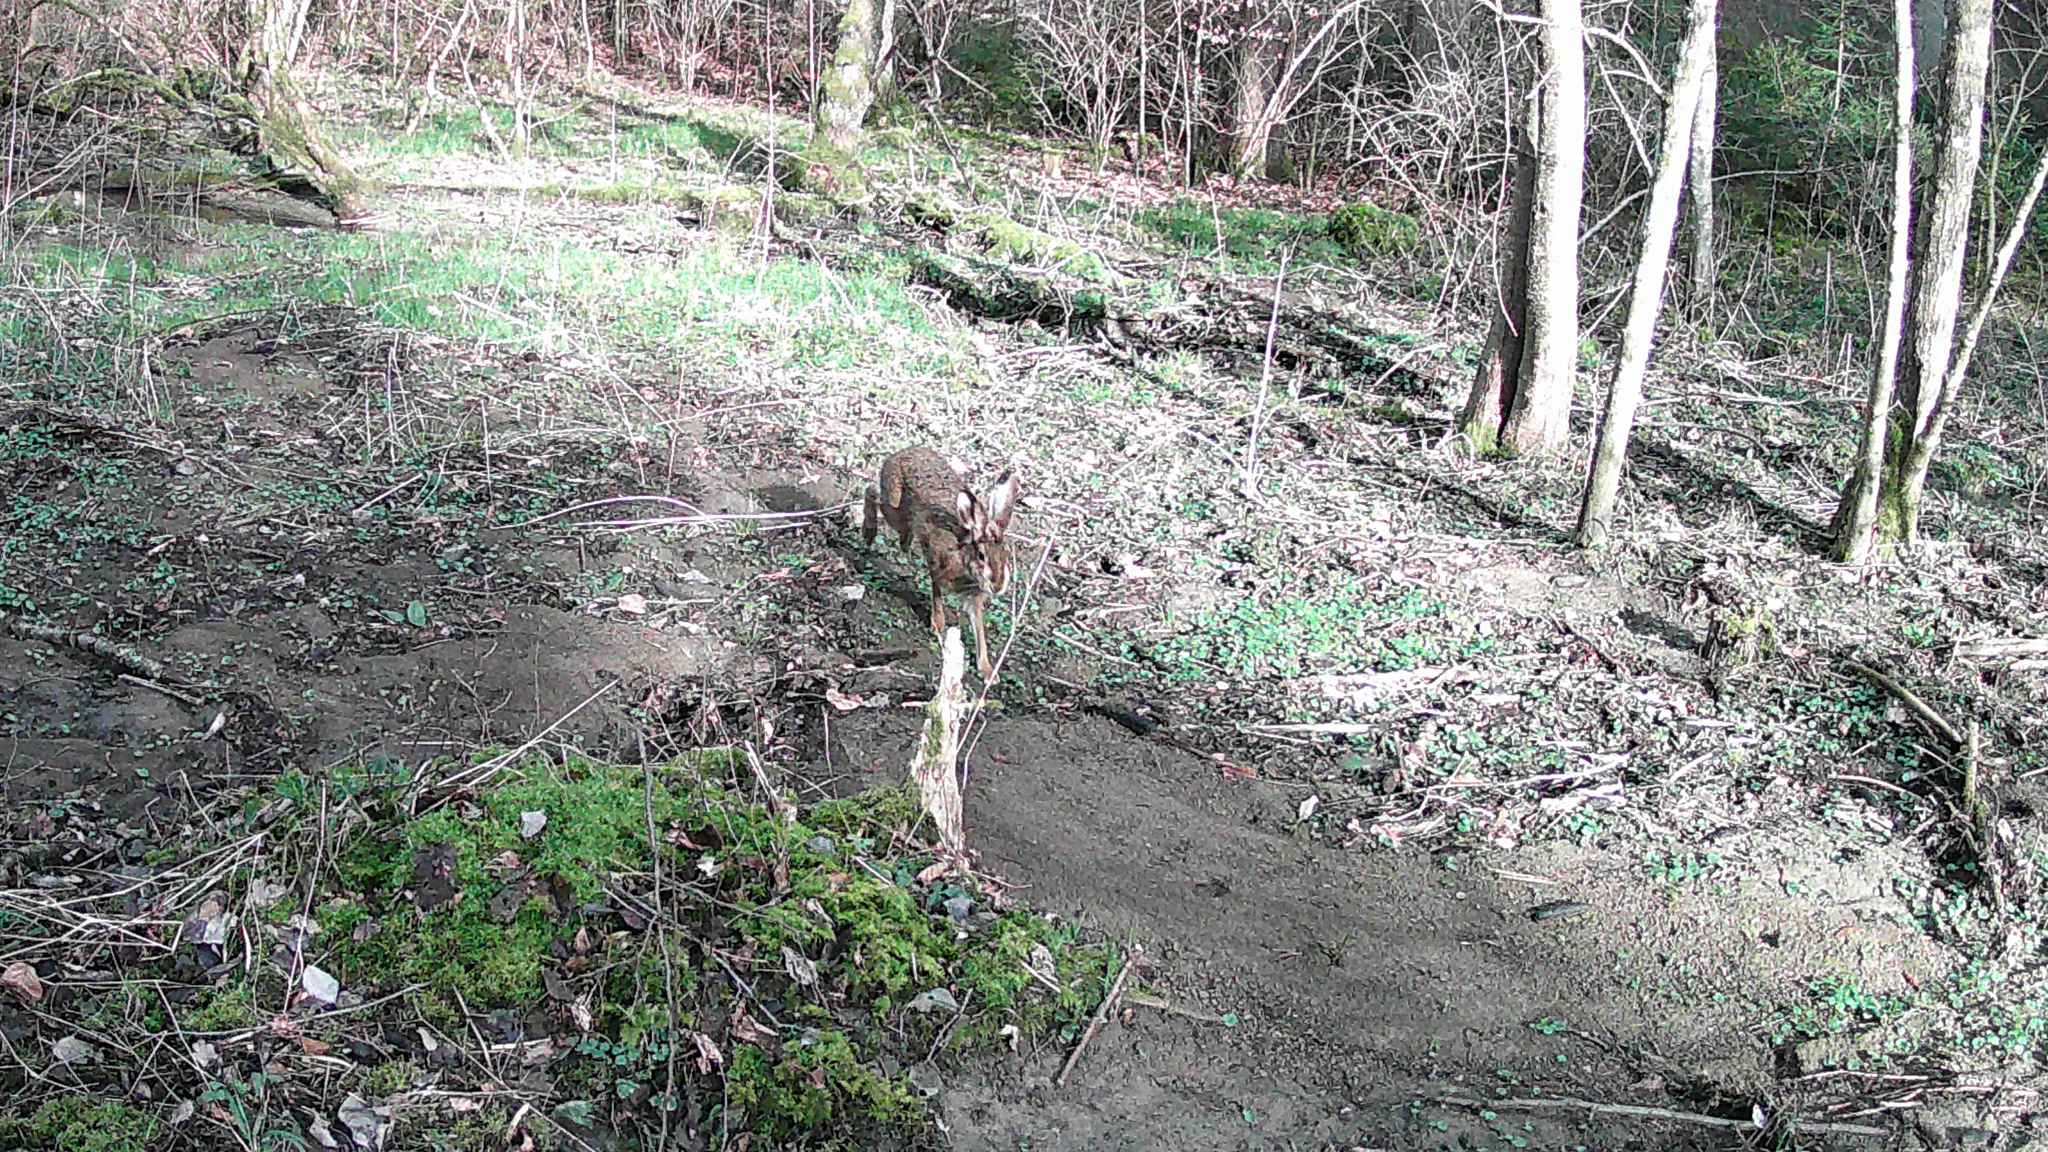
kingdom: Animalia
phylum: Chordata
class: Mammalia
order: Lagomorpha
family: Leporidae
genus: Lepus
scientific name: Lepus europaeus
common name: European hare
